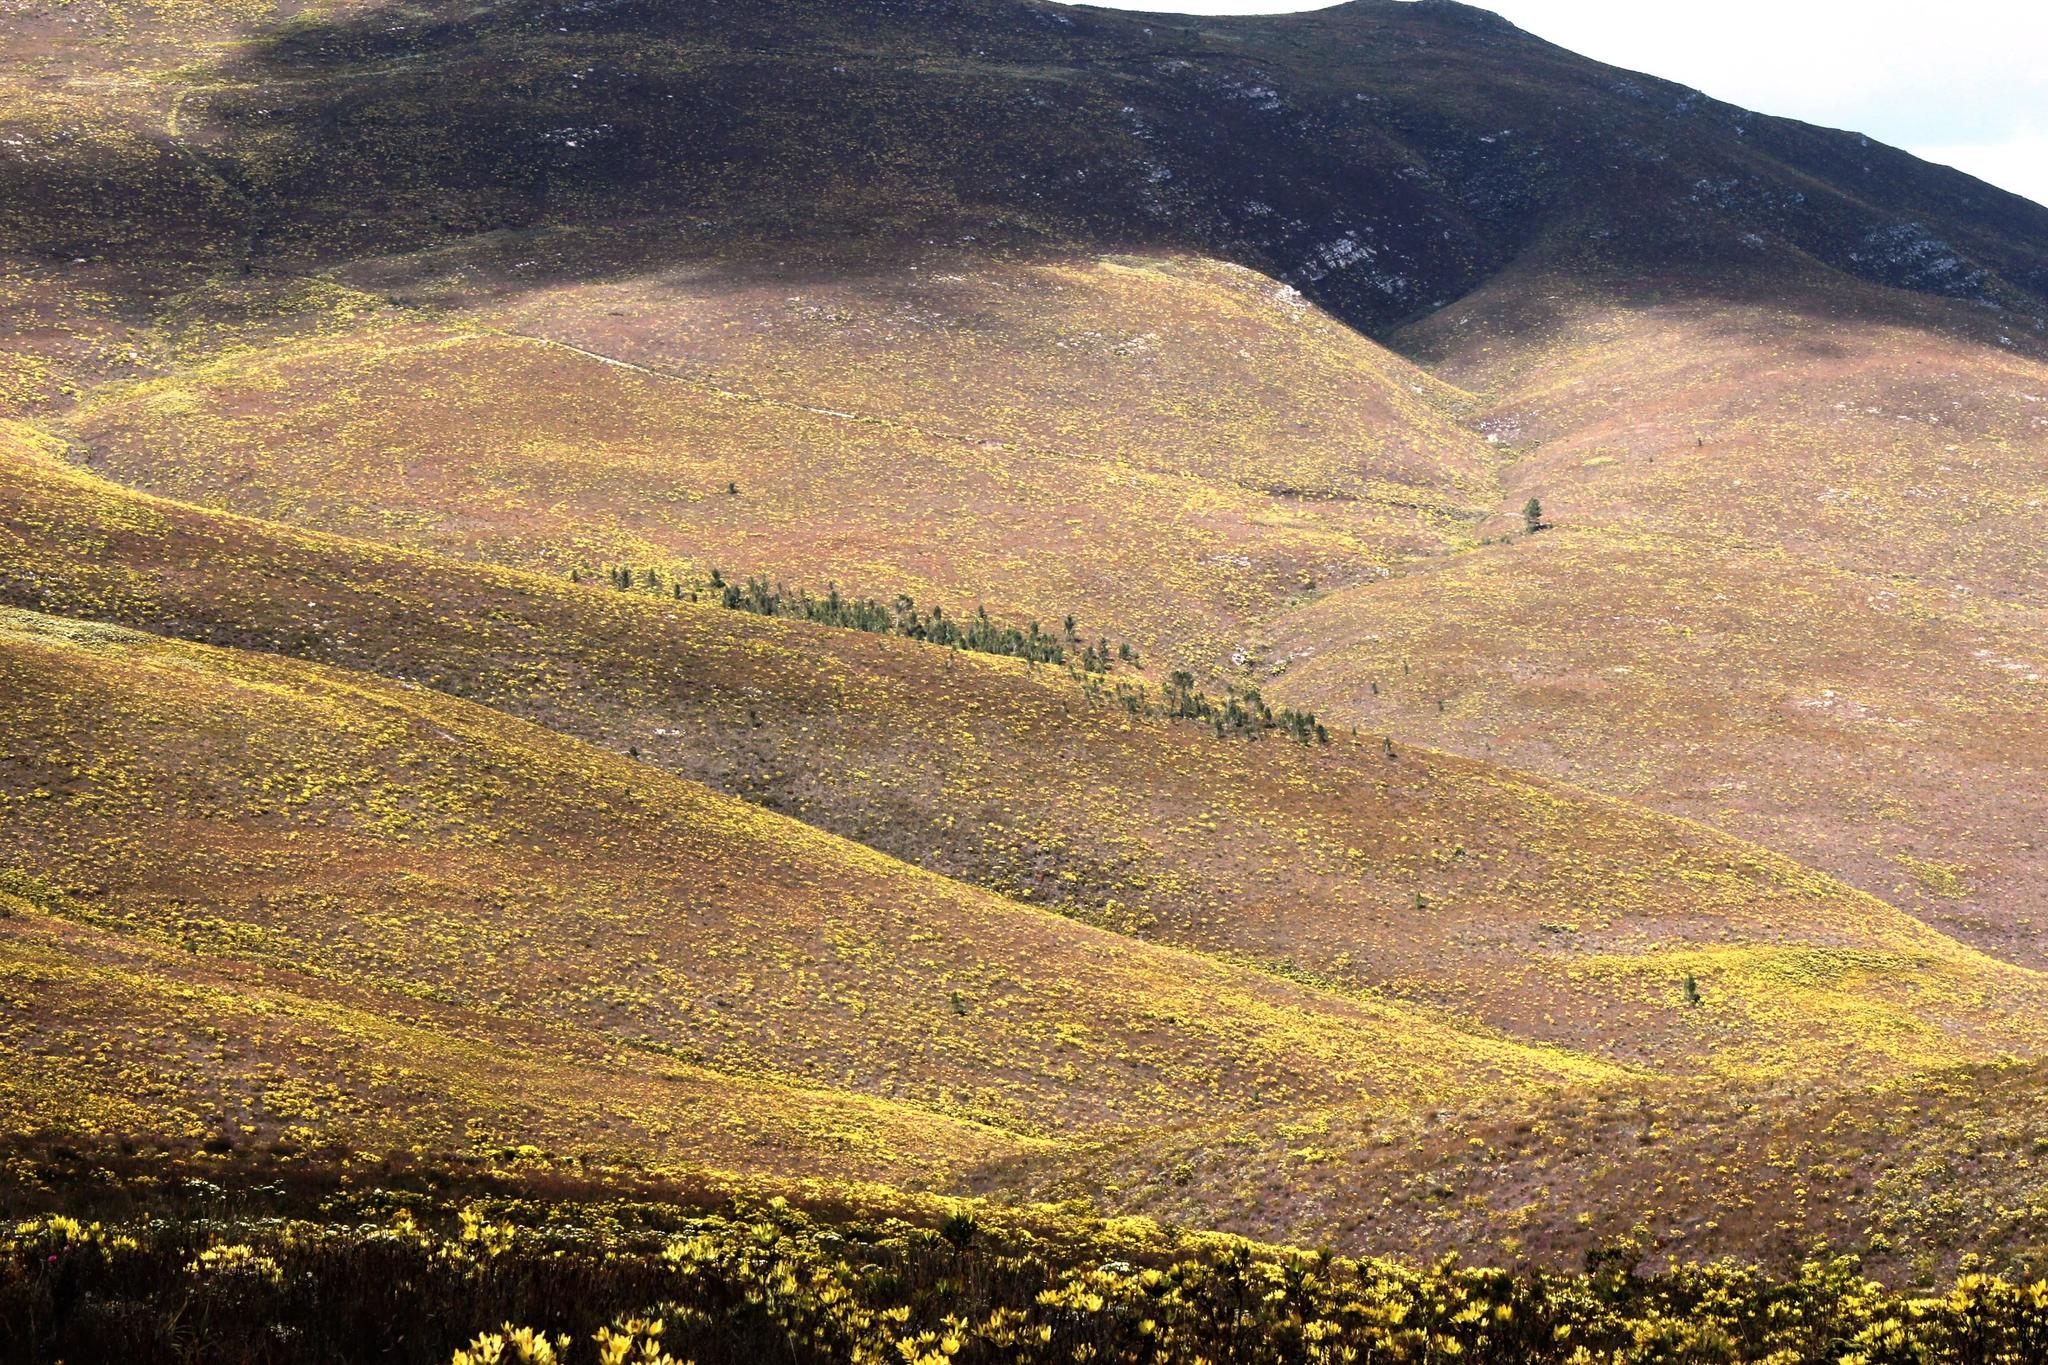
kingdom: Plantae
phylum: Tracheophyta
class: Pinopsida
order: Pinales
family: Pinaceae
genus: Pinus
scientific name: Pinus pinaster
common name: Maritime pine
